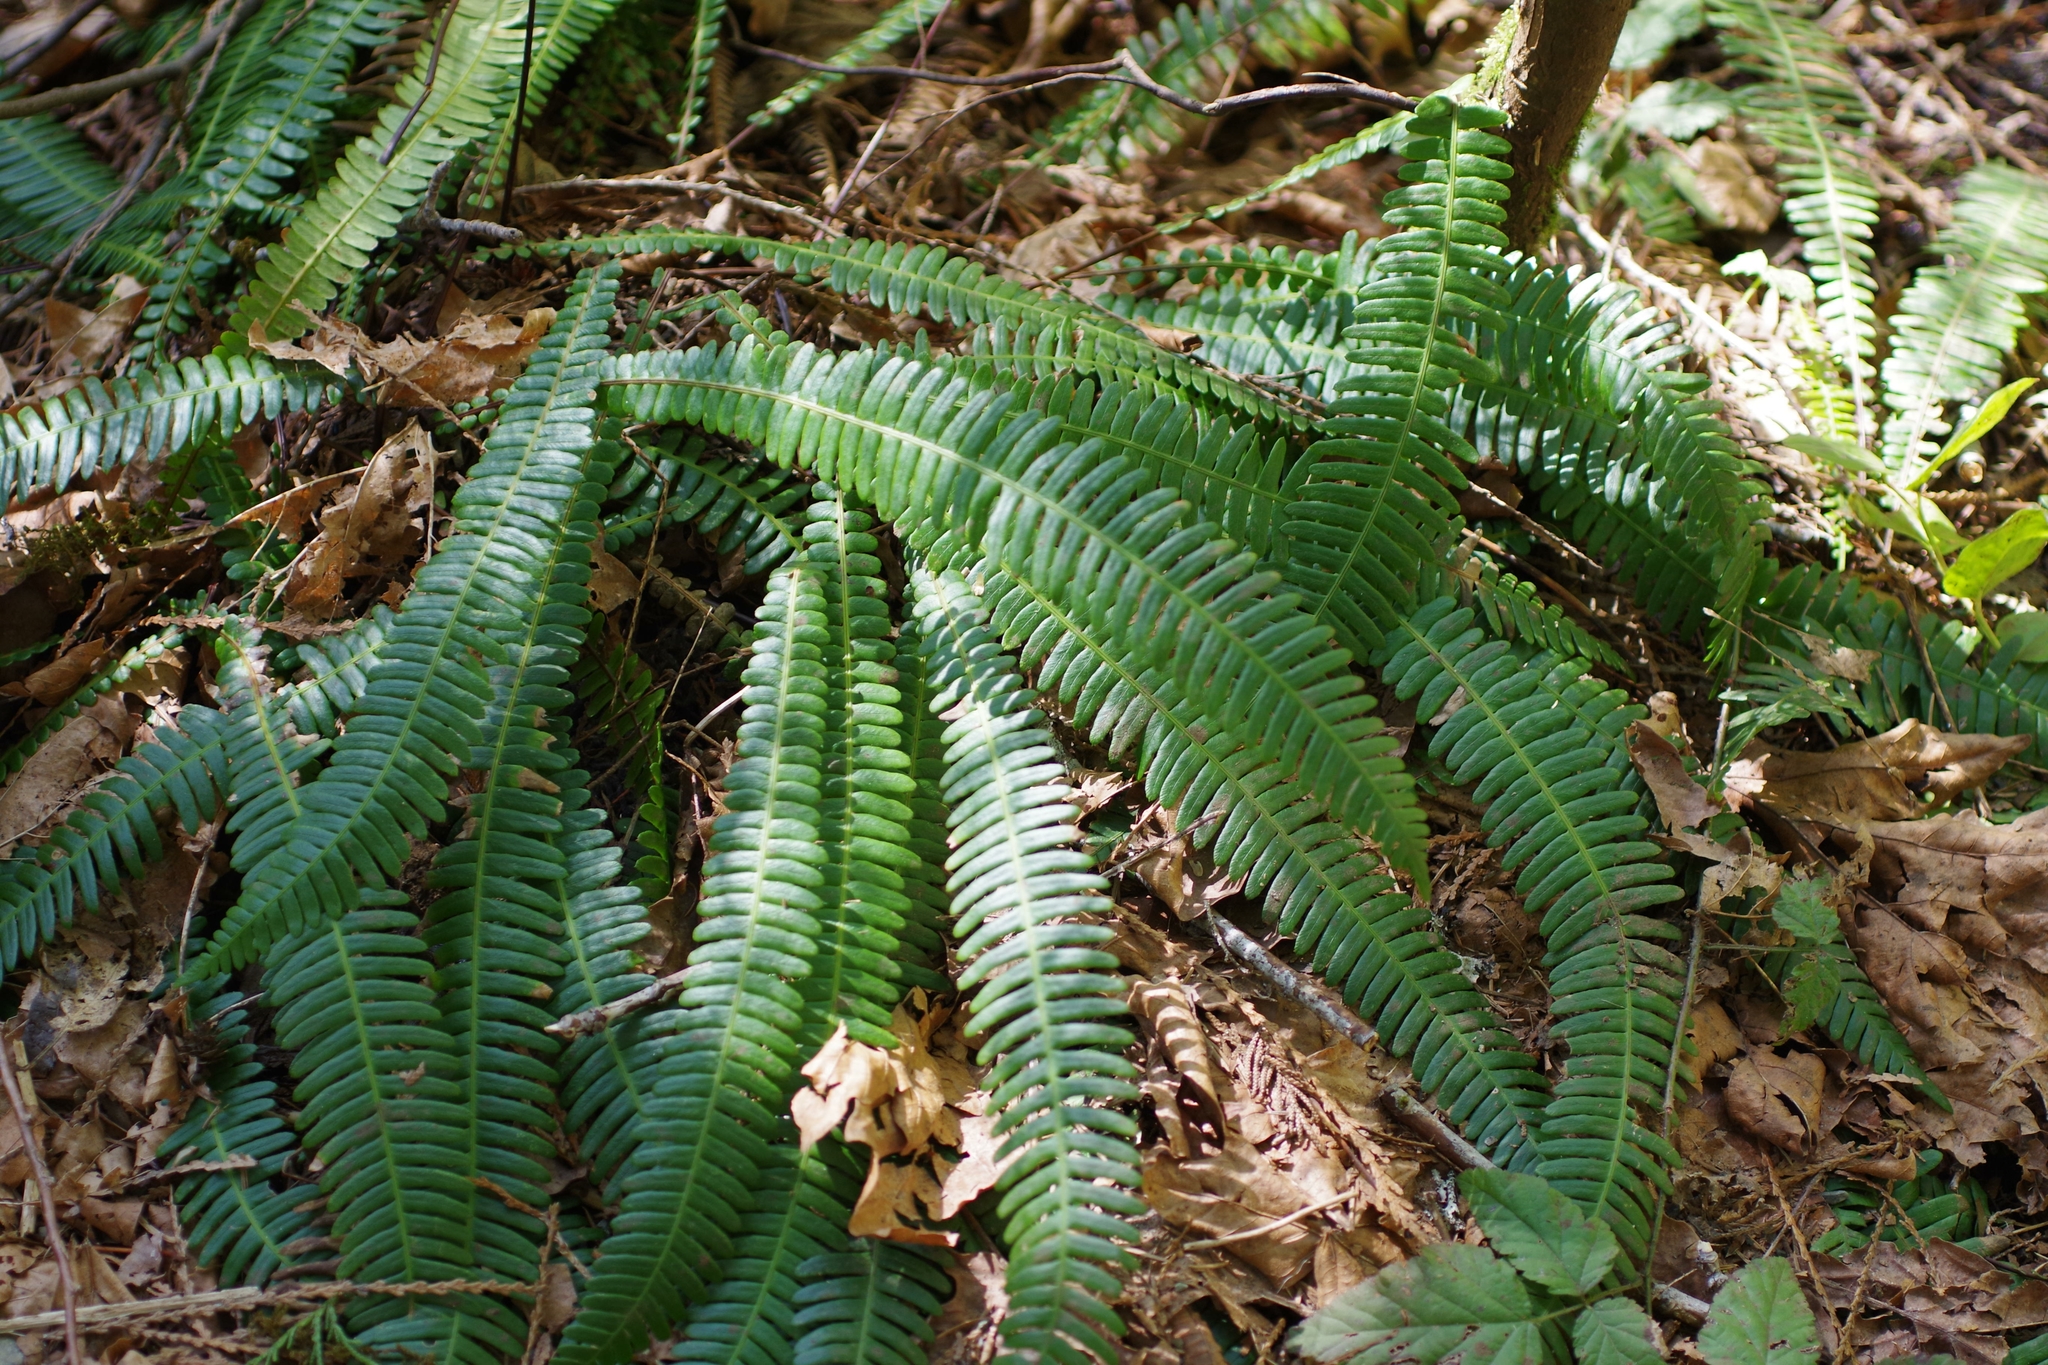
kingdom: Plantae
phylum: Tracheophyta
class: Polypodiopsida
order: Polypodiales
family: Blechnaceae
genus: Struthiopteris
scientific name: Struthiopteris spicant
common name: Deer fern
